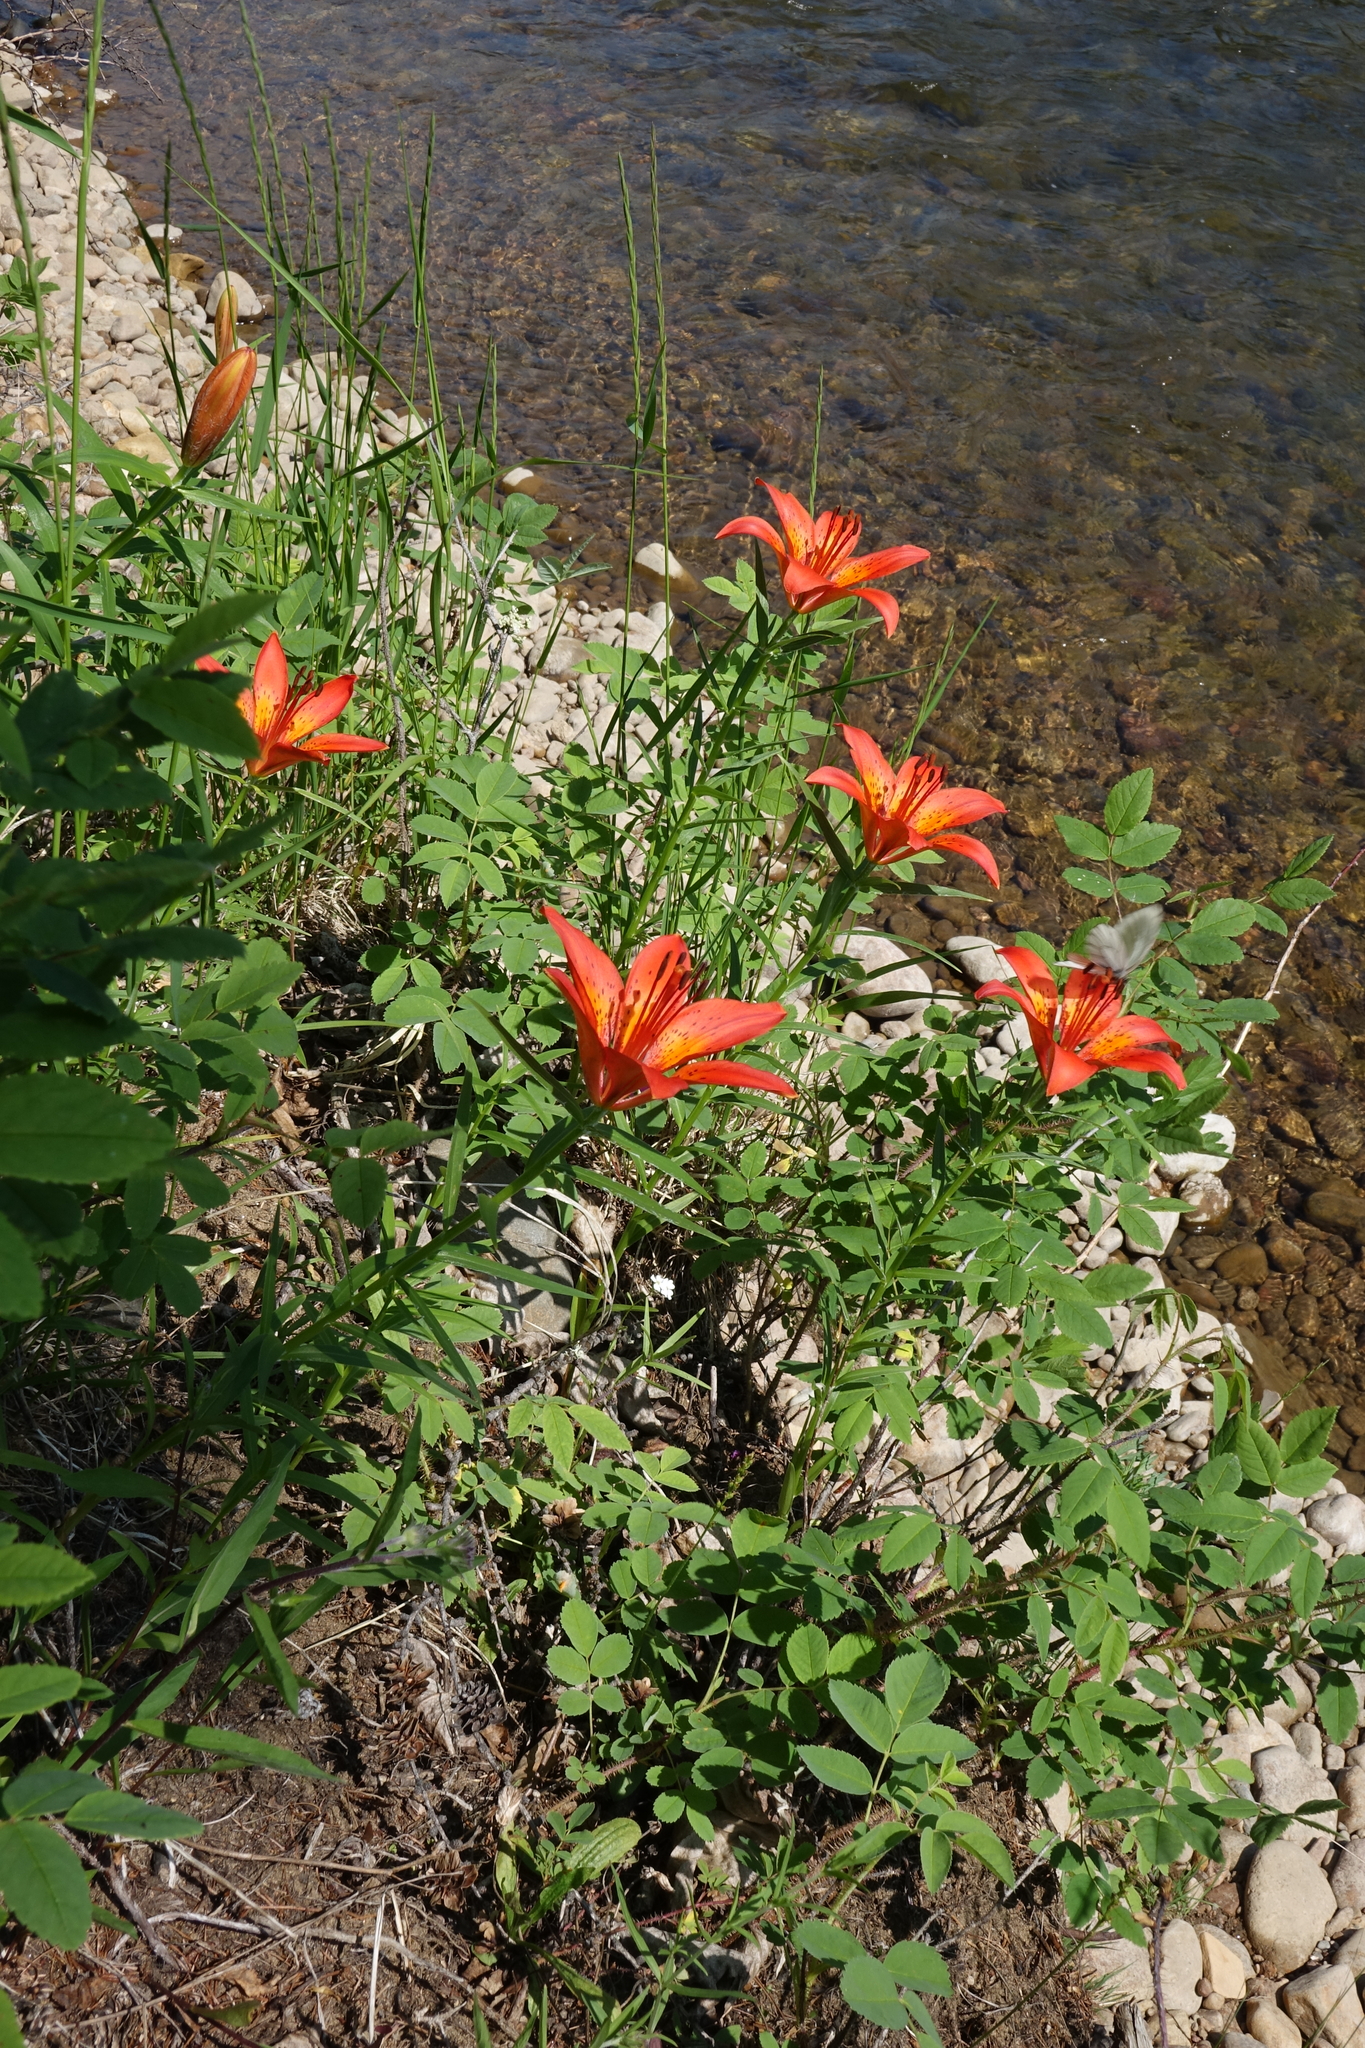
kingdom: Plantae
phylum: Tracheophyta
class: Liliopsida
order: Liliales
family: Liliaceae
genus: Lilium
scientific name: Lilium pensylvanicum
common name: Candlestick lily
